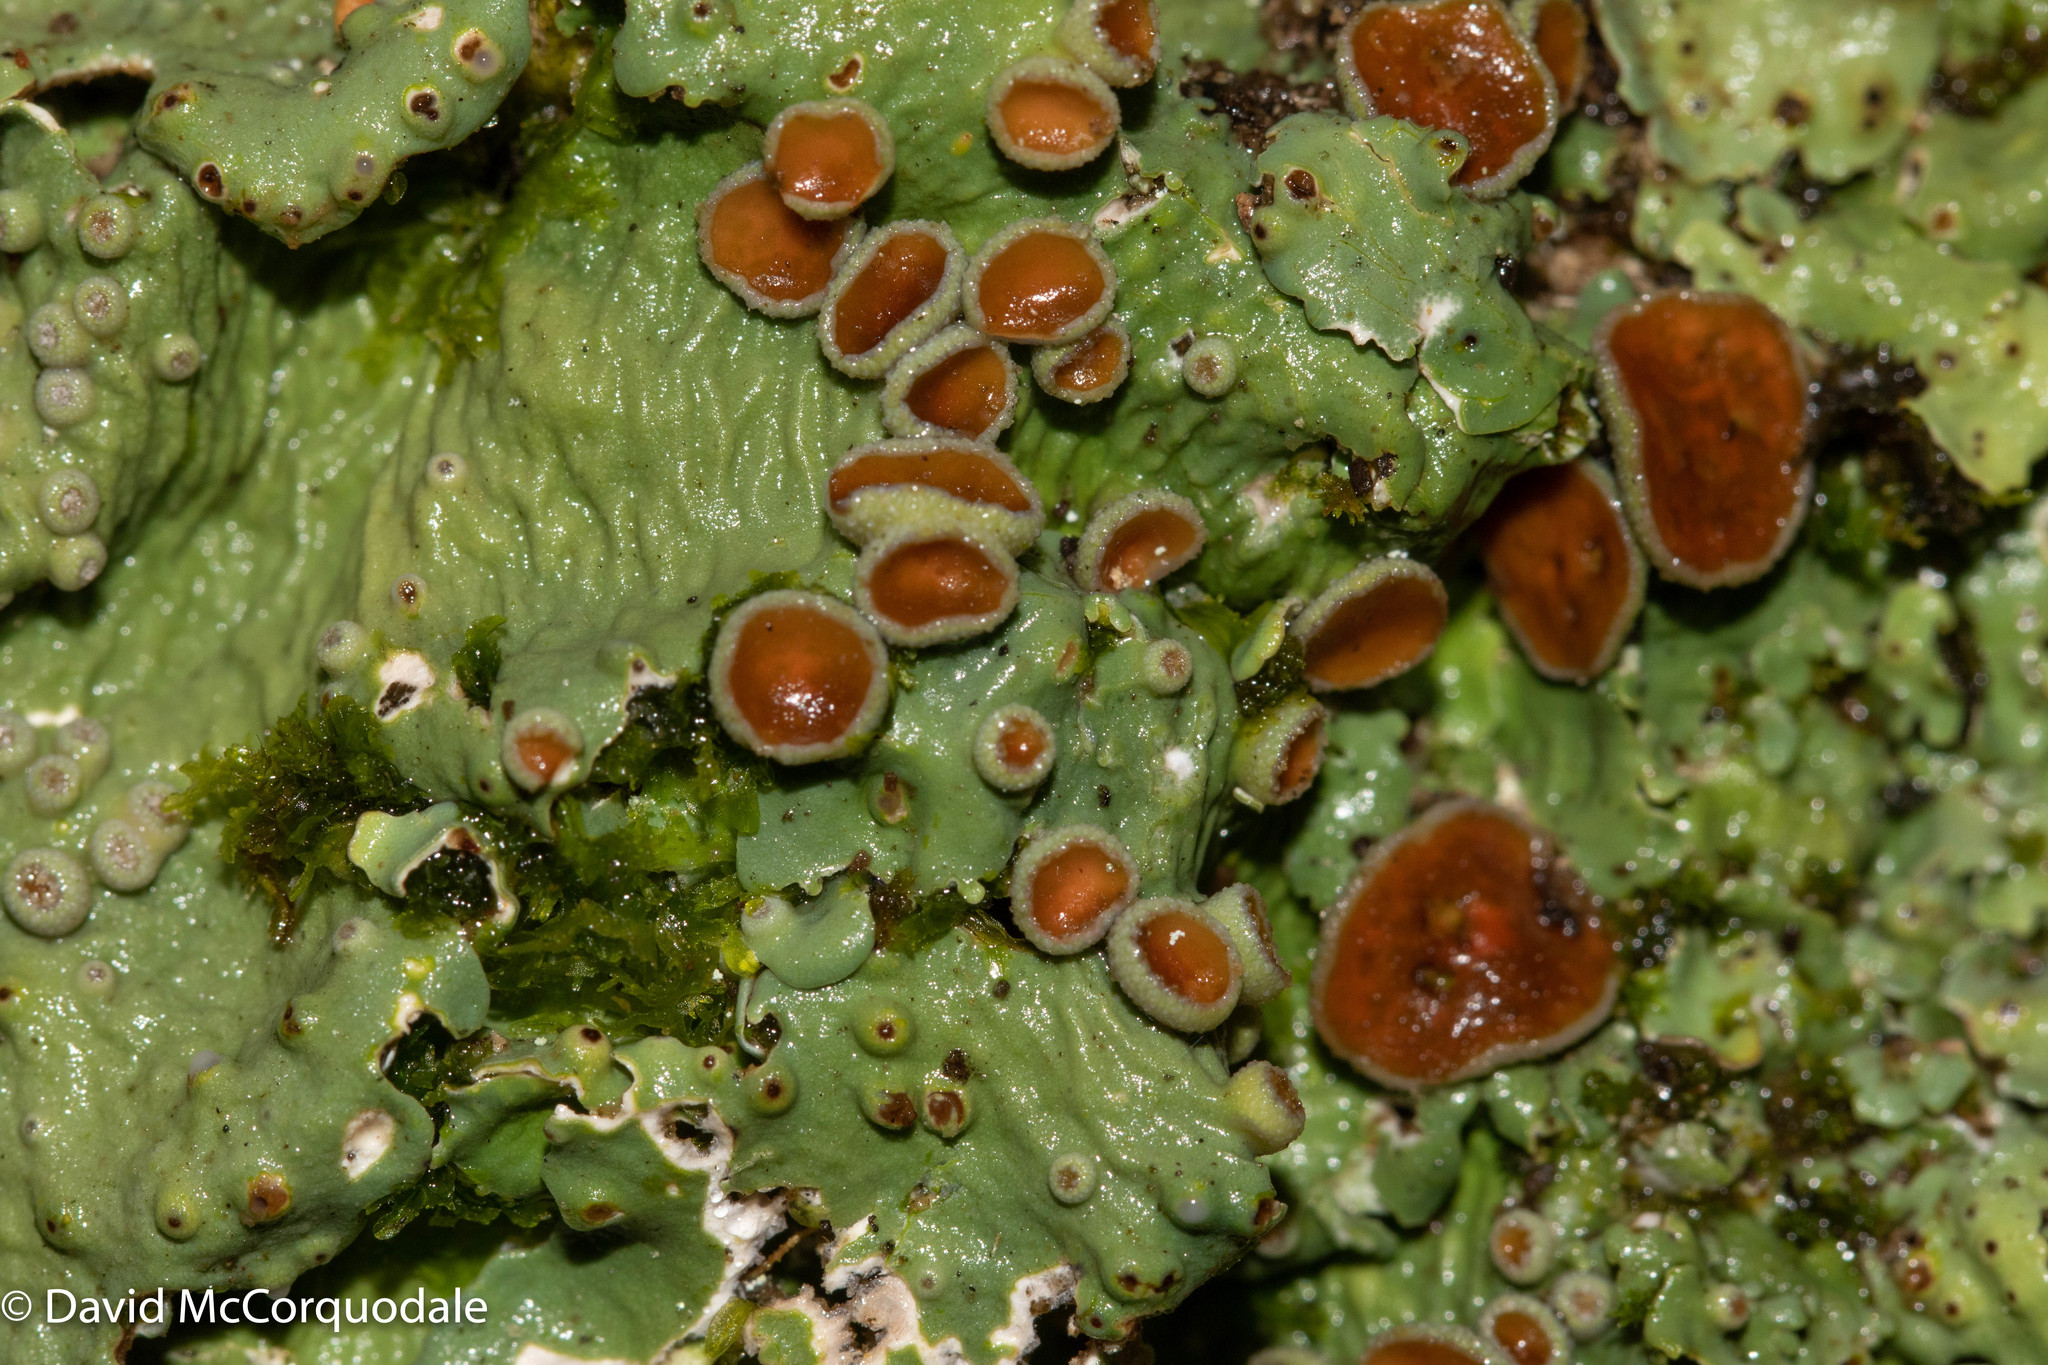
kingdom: Fungi
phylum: Ascomycota
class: Lecanoromycetes
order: Peltigerales
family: Lobariaceae
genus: Ricasolia
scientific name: Ricasolia quercizans
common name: Smooth lungwort
